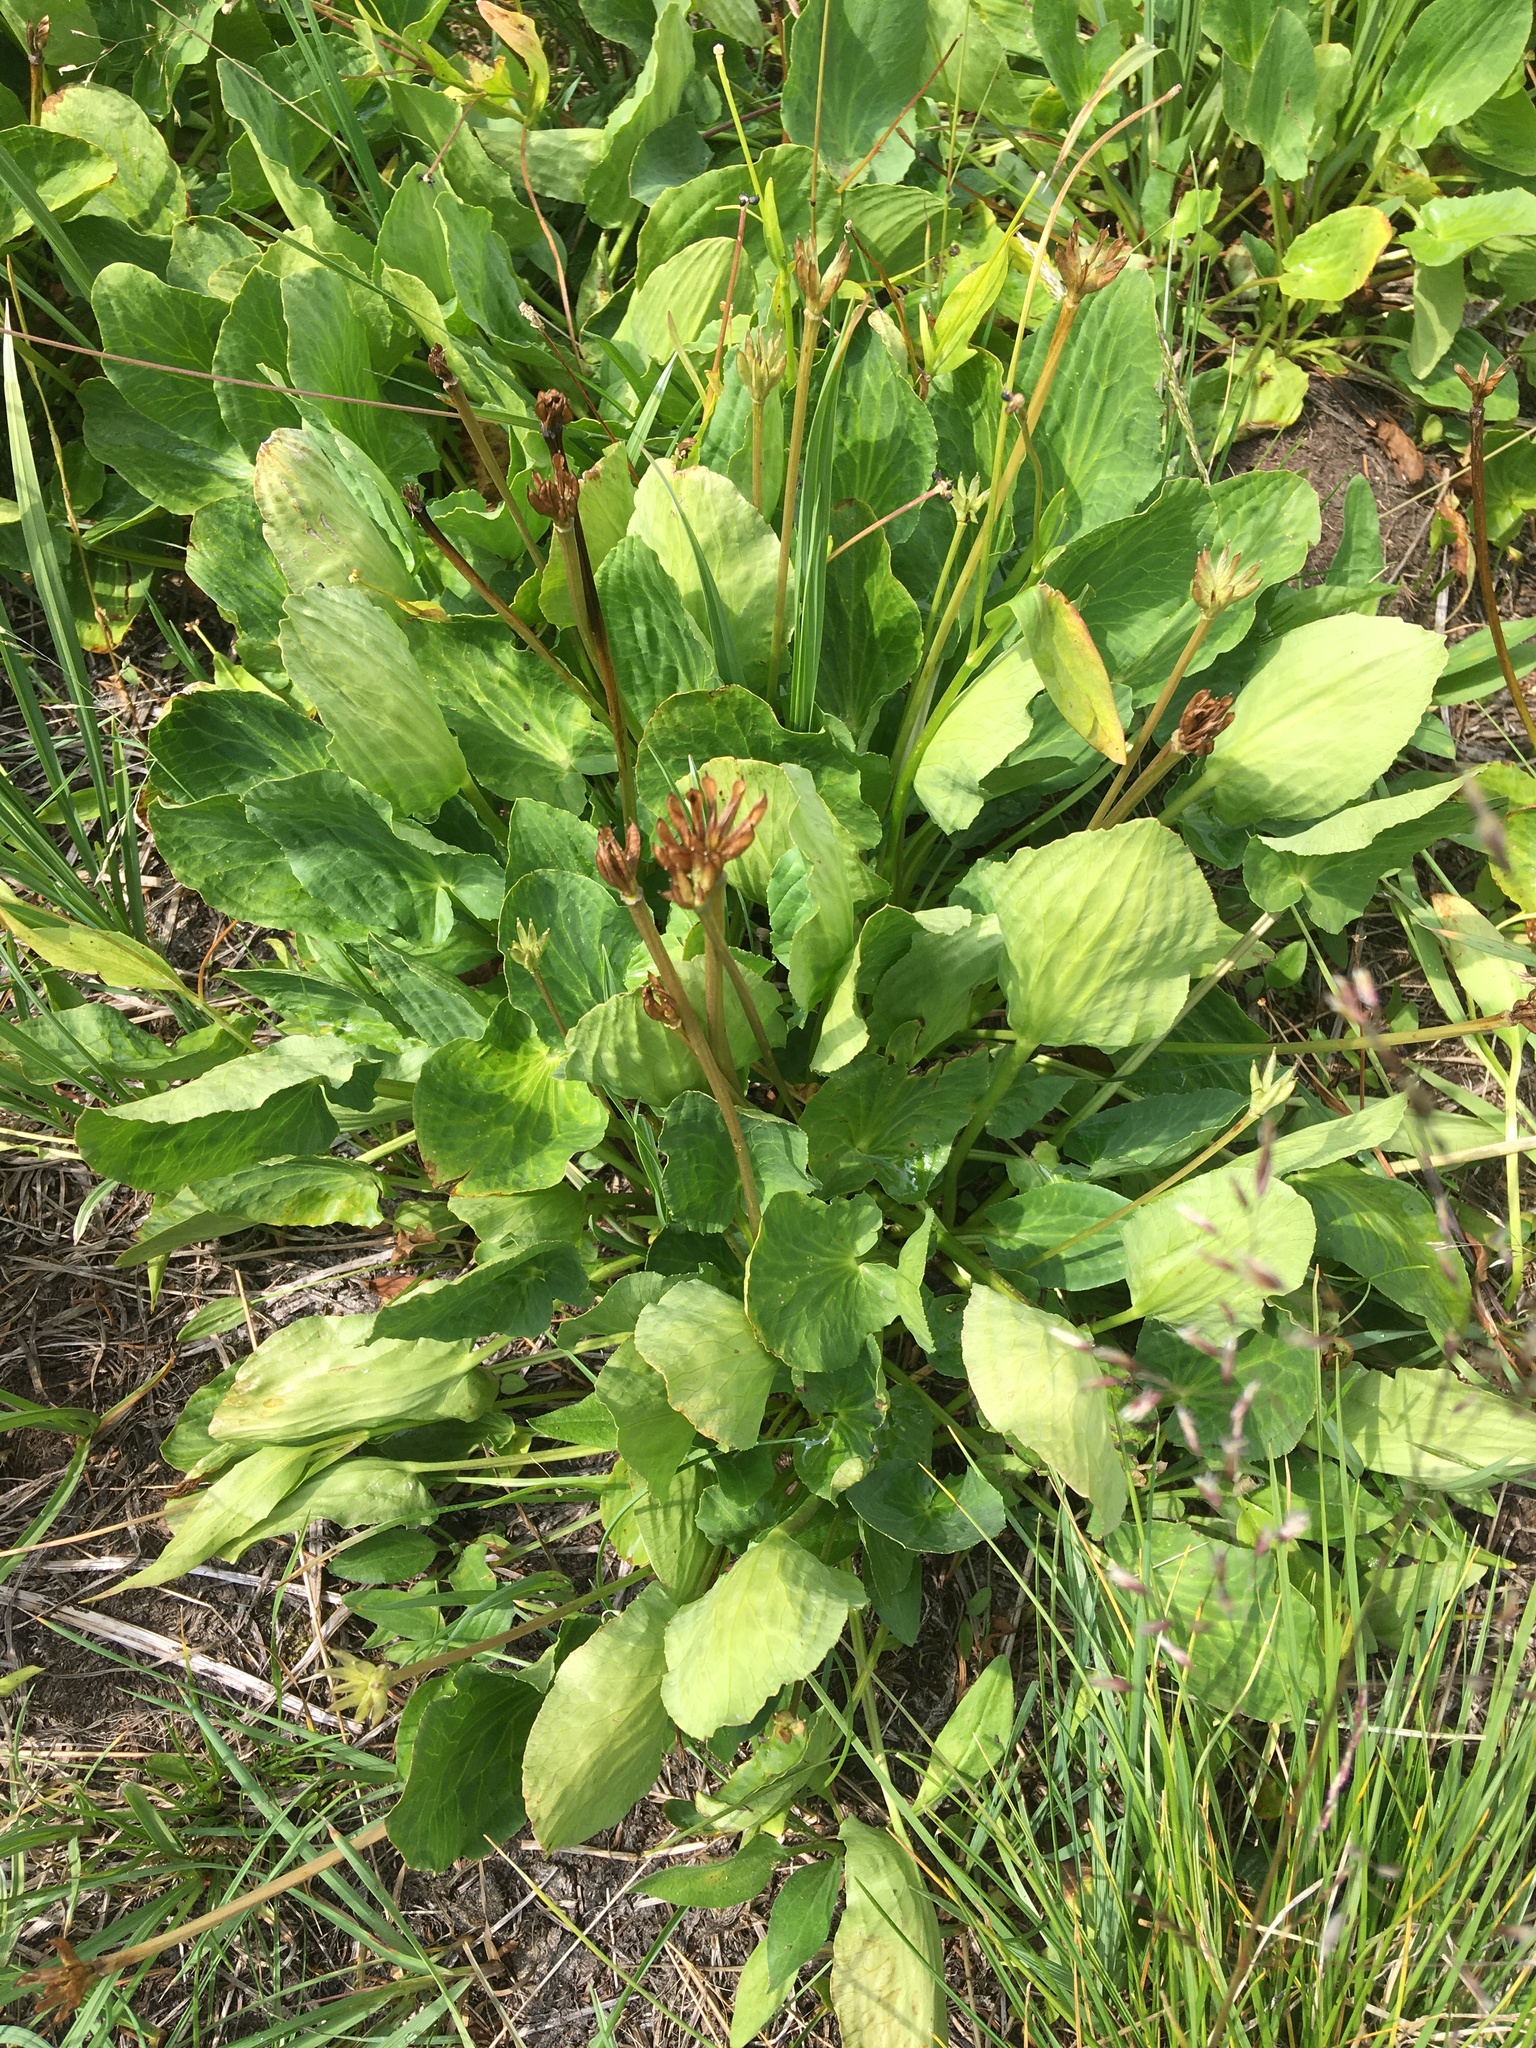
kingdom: Plantae
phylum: Tracheophyta
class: Magnoliopsida
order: Ranunculales
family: Ranunculaceae
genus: Caltha
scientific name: Caltha leptosepala
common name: Elkslip
